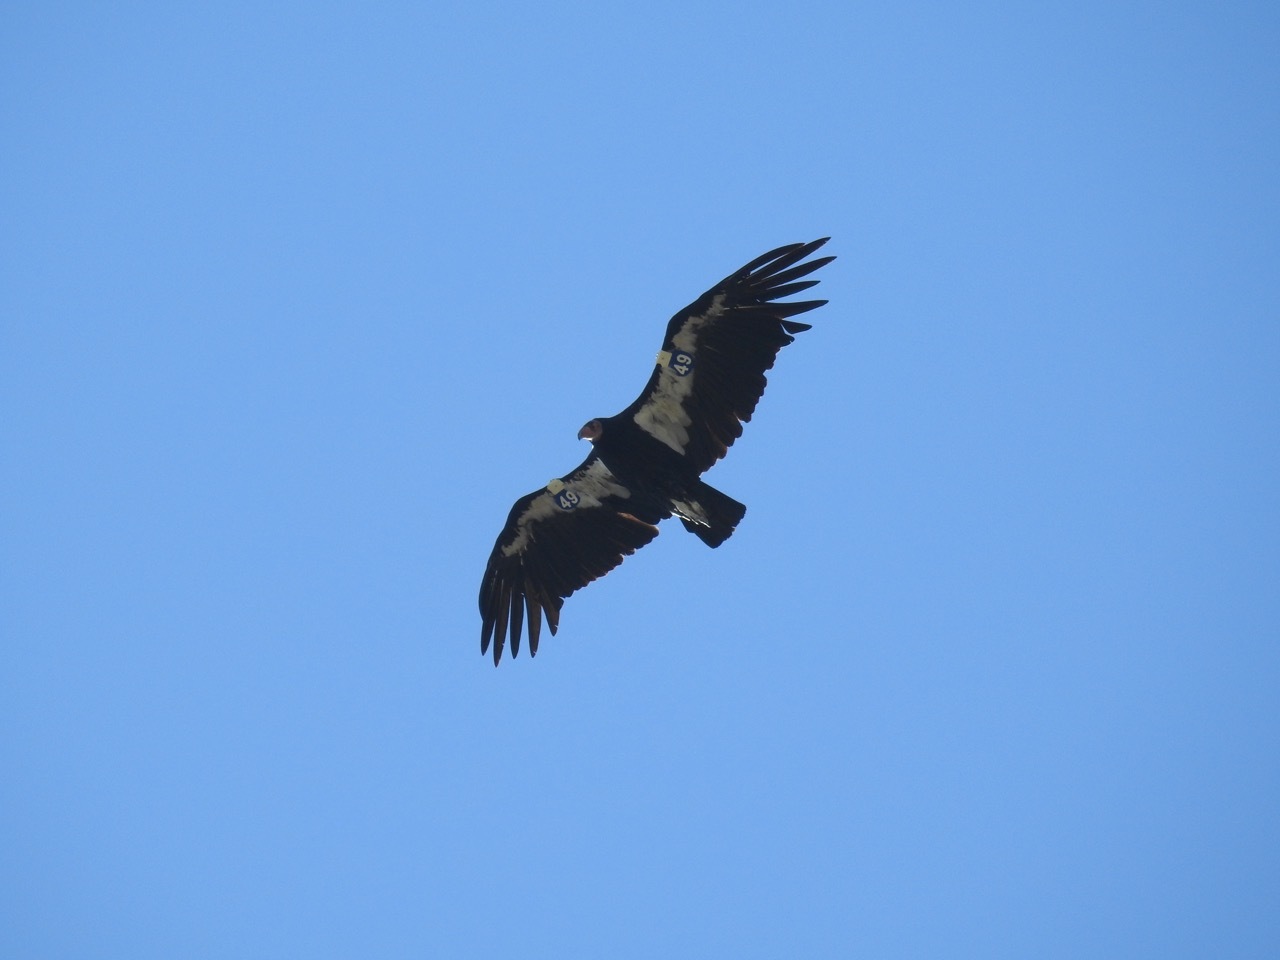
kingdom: Animalia
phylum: Chordata
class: Aves
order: Accipitriformes
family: Cathartidae
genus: Gymnogyps
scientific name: Gymnogyps californianus
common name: California condor
